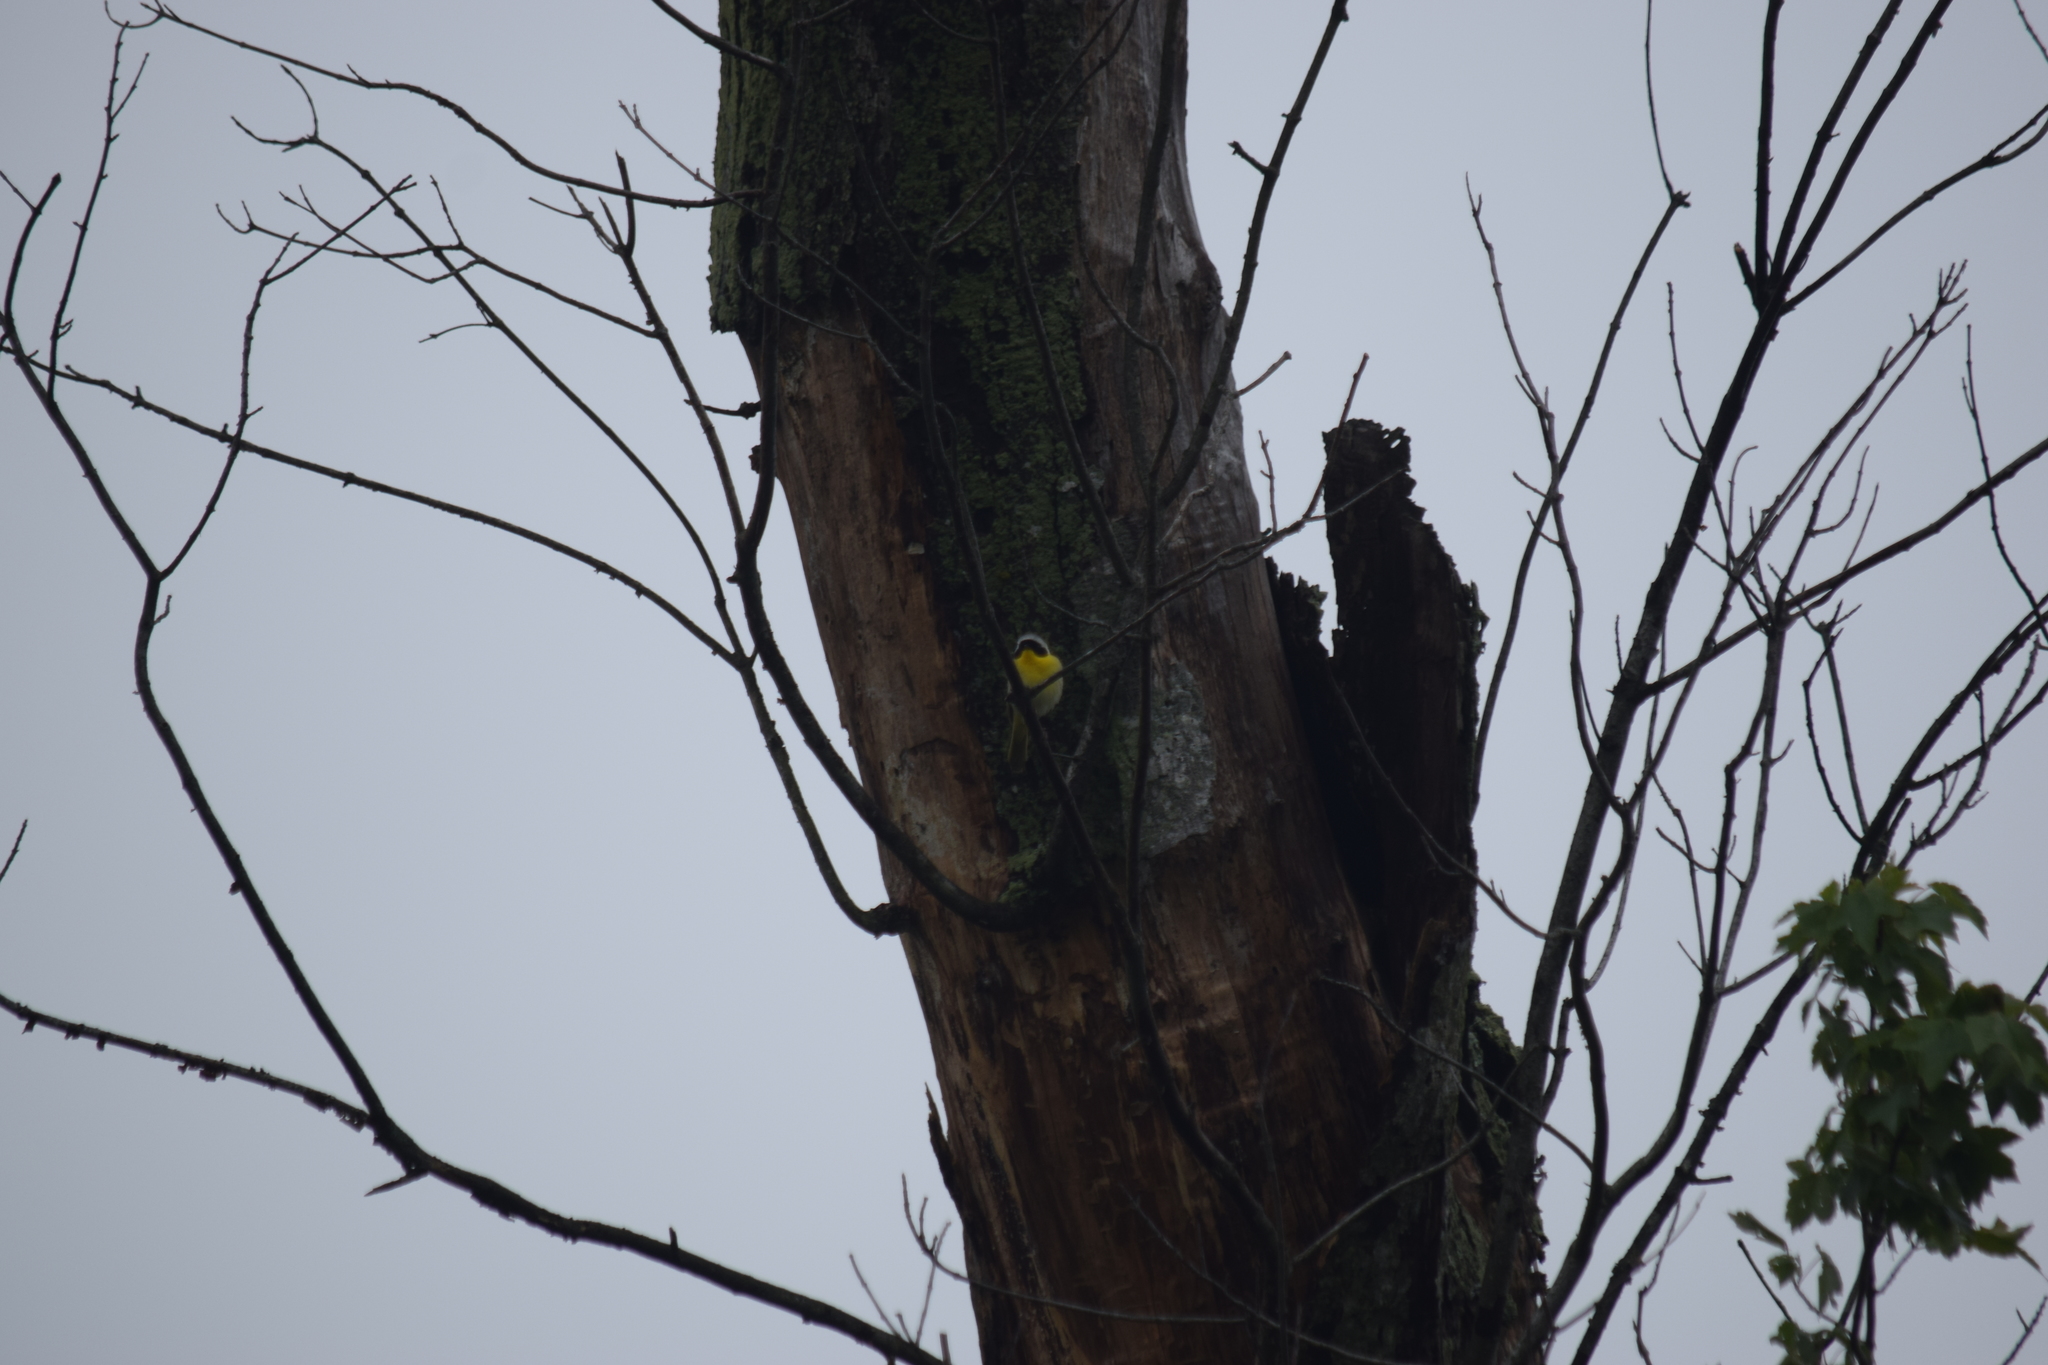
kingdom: Animalia
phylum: Chordata
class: Aves
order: Passeriformes
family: Parulidae
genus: Geothlypis
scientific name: Geothlypis trichas
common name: Common yellowthroat
